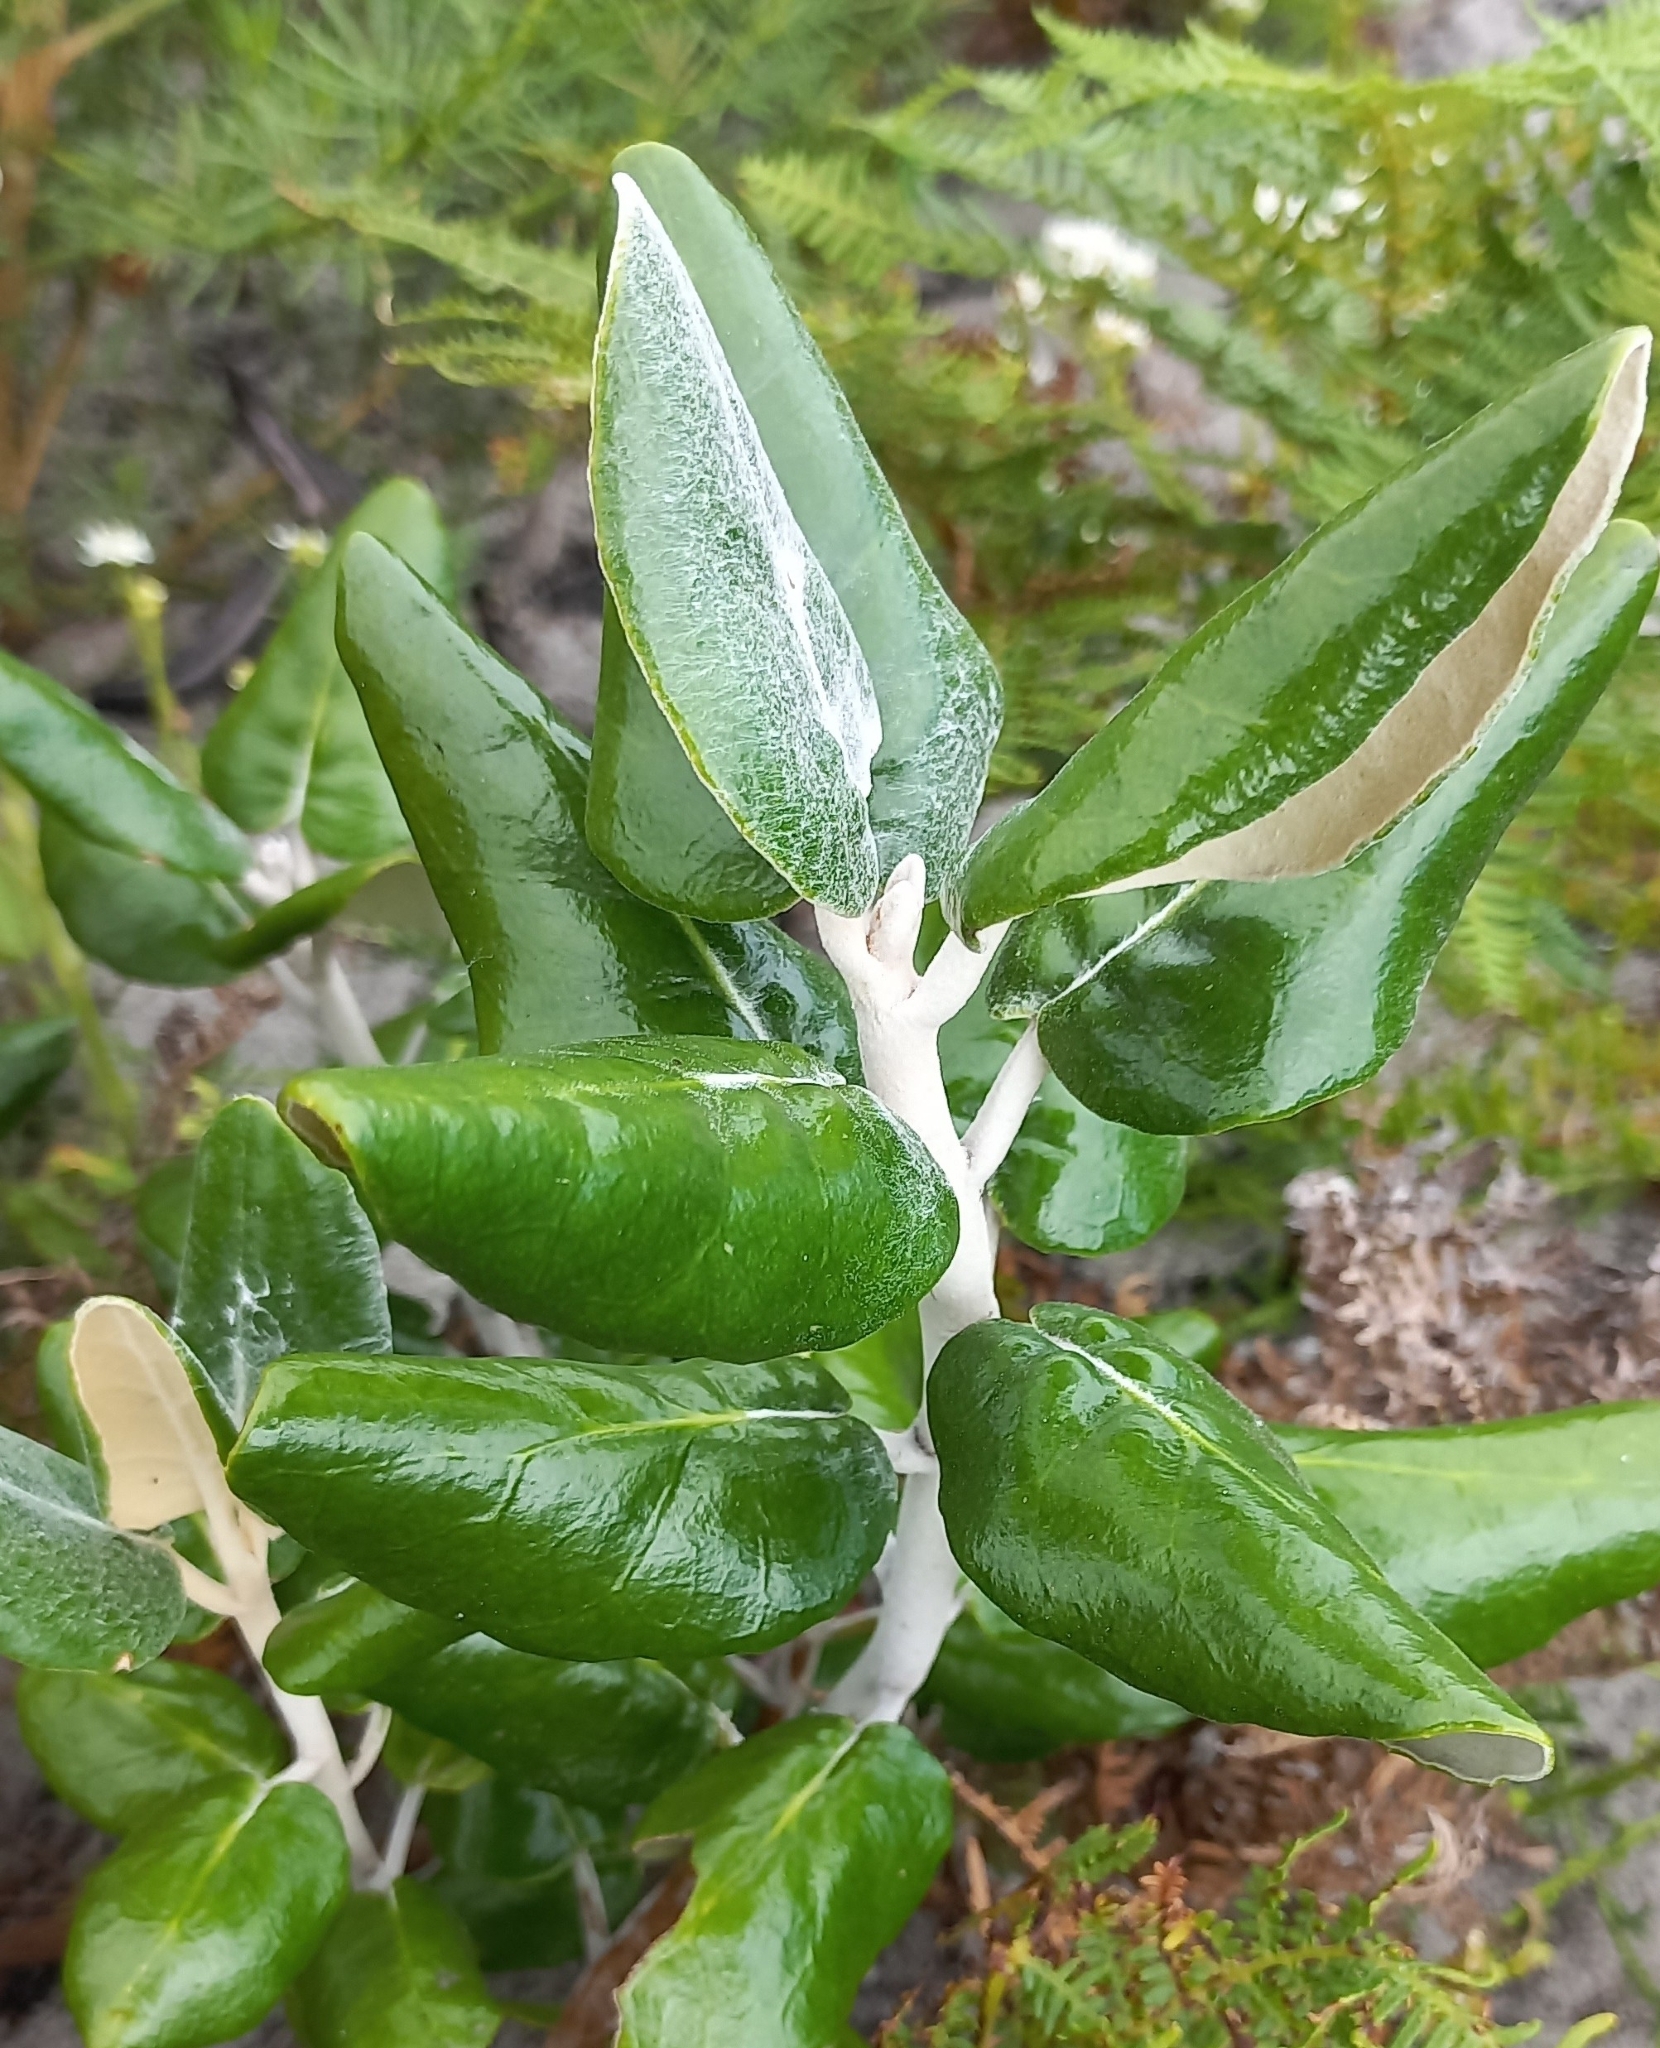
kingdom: Plantae
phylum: Tracheophyta
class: Magnoliopsida
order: Asterales
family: Asteraceae
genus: Capelio
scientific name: Capelio tabularis
